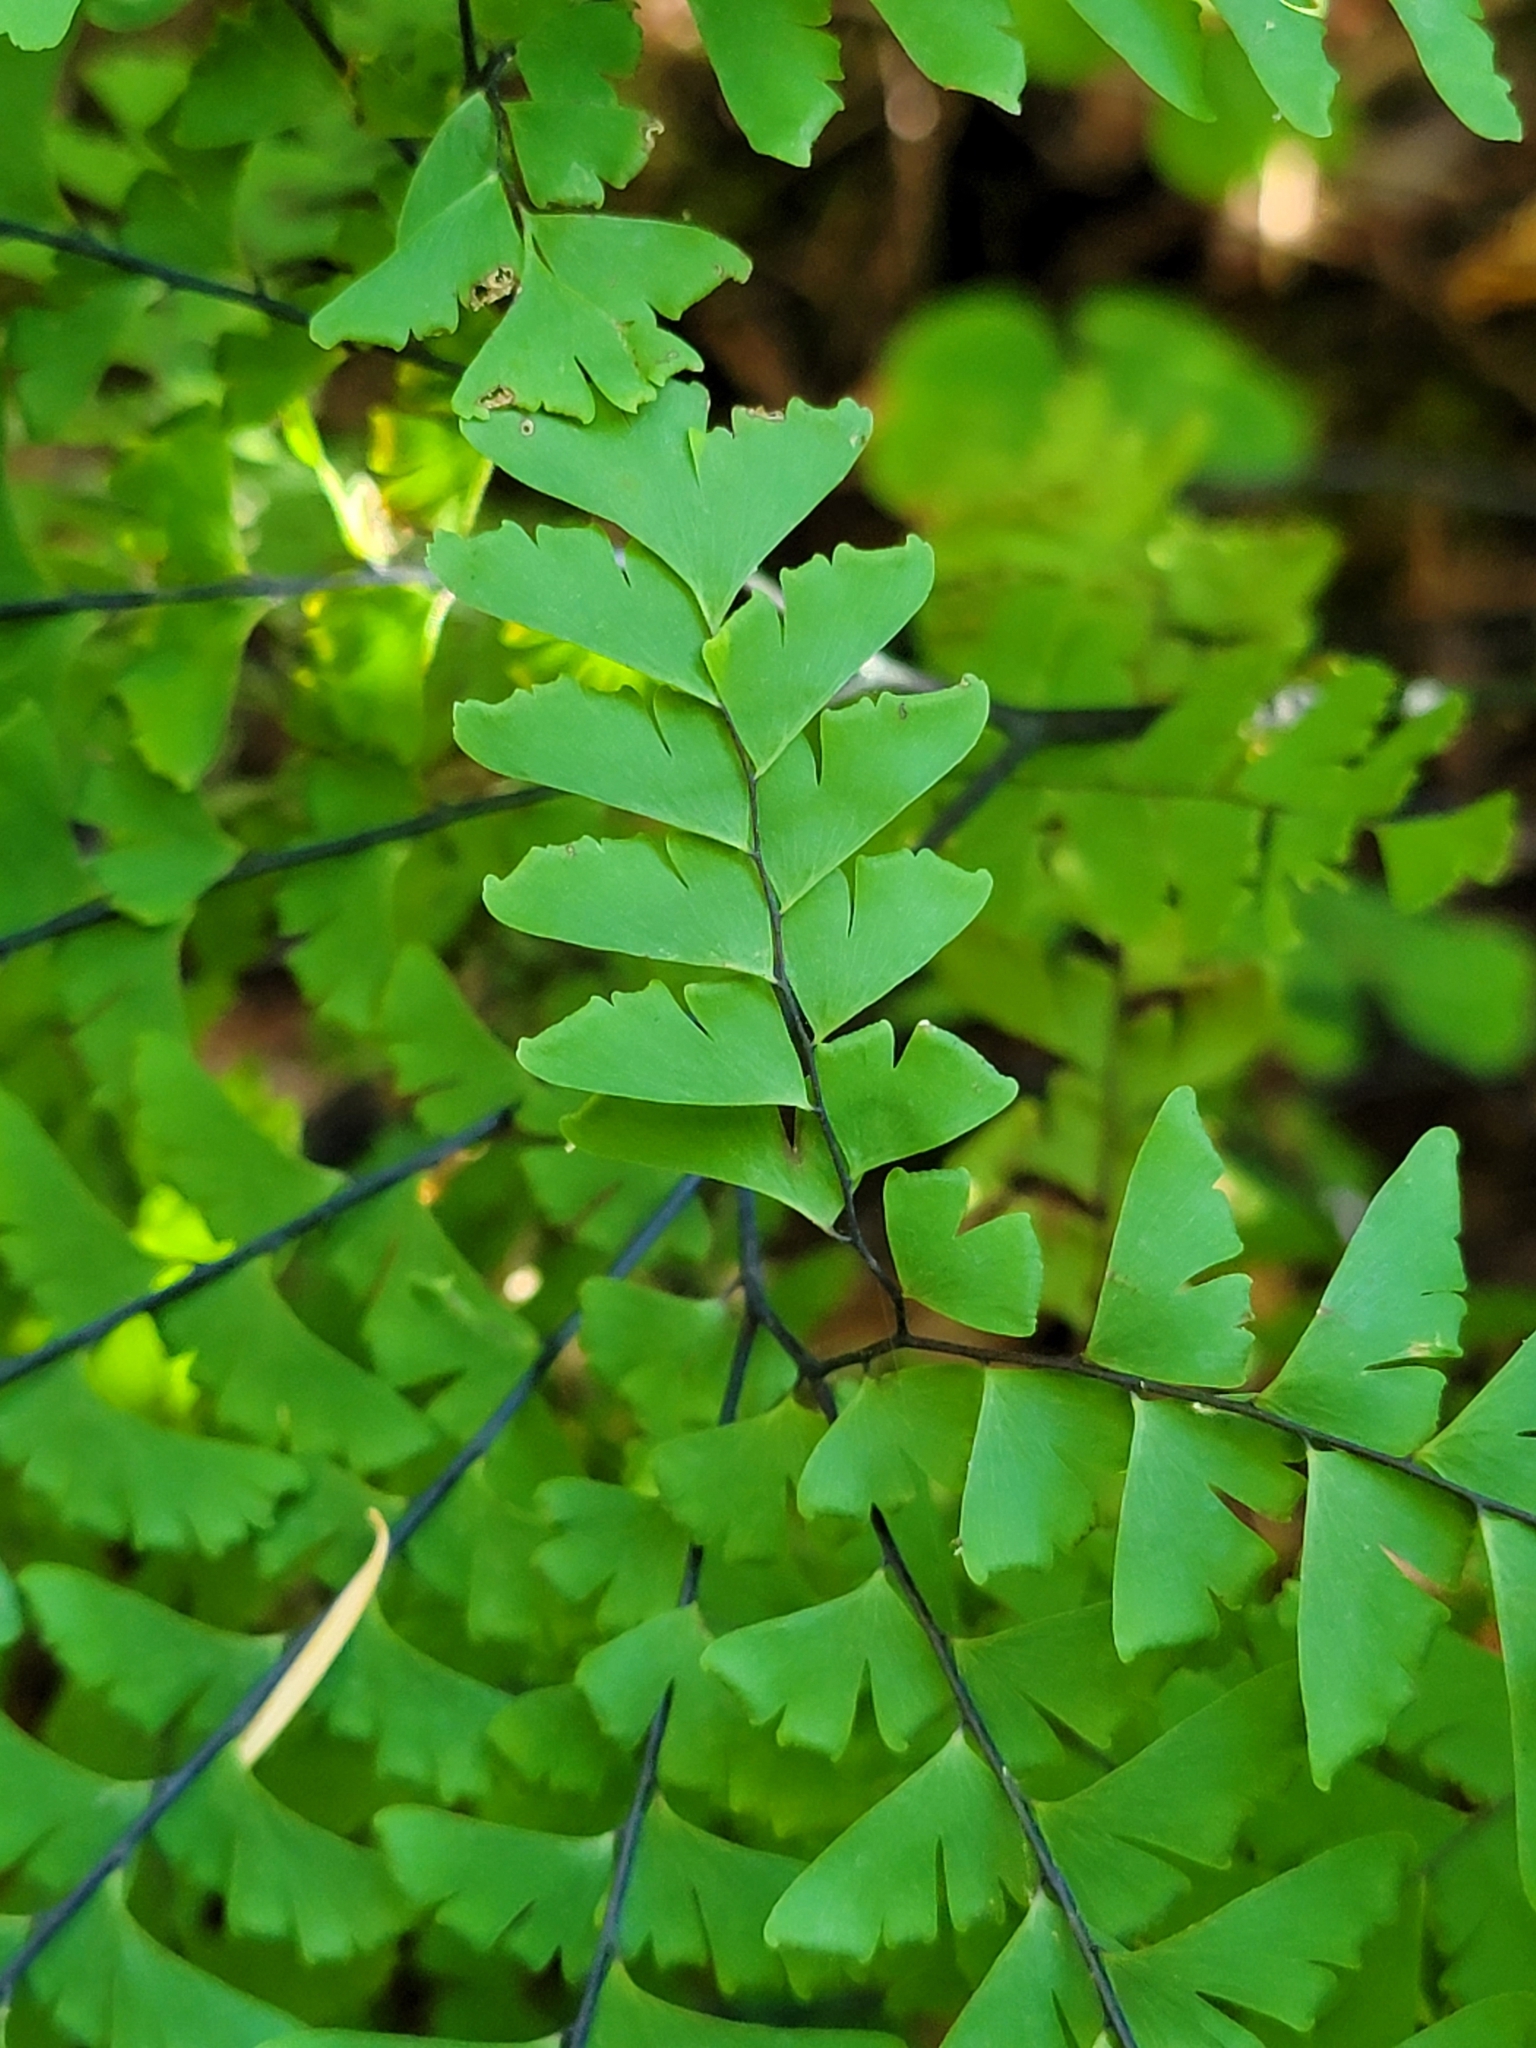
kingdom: Plantae
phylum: Tracheophyta
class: Polypodiopsida
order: Polypodiales
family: Pteridaceae
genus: Adiantum
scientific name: Adiantum aleuticum
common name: Aleutian maidenhair fern
